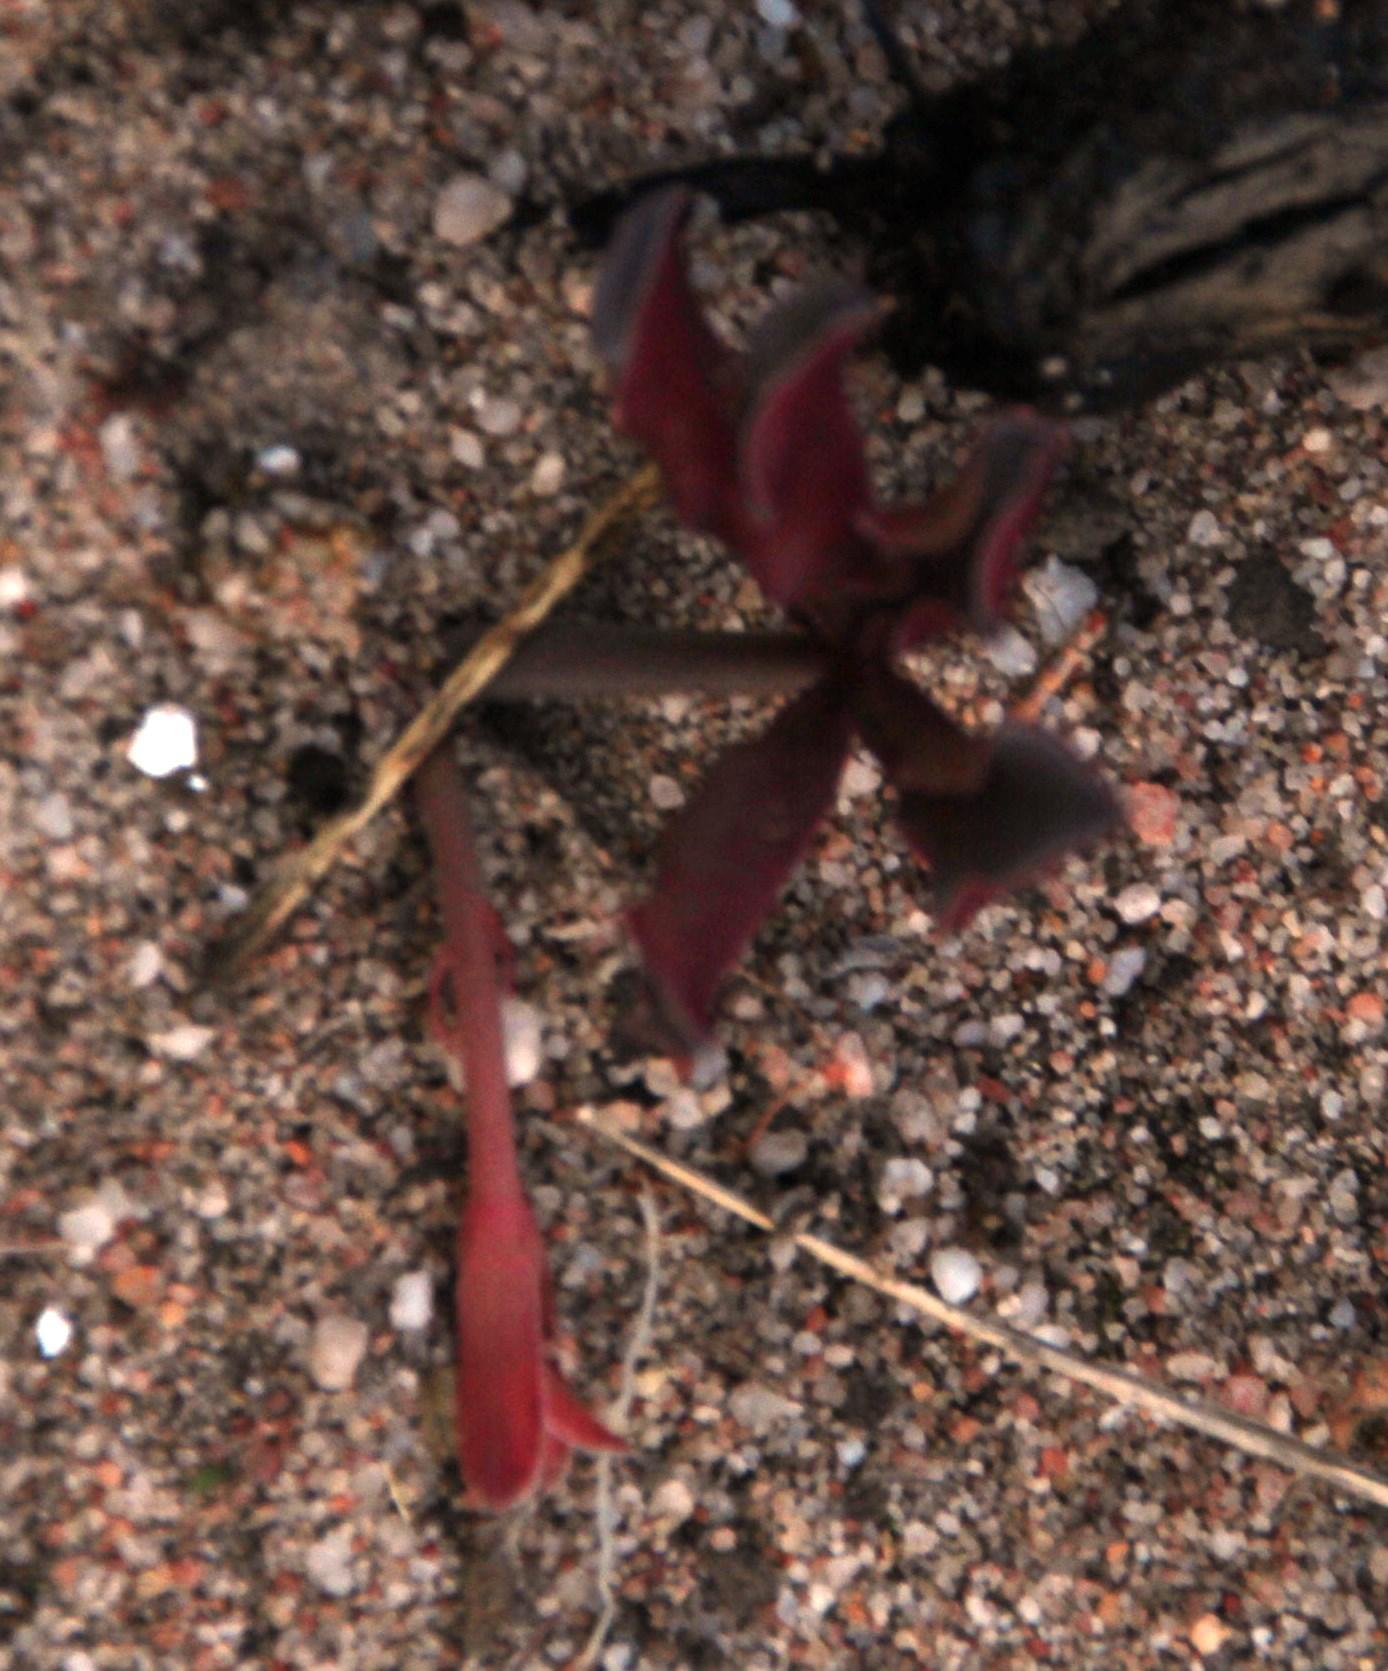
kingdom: Plantae
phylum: Tracheophyta
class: Magnoliopsida
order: Oxalidales
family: Oxalidaceae
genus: Oxalis
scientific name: Oxalis flava
